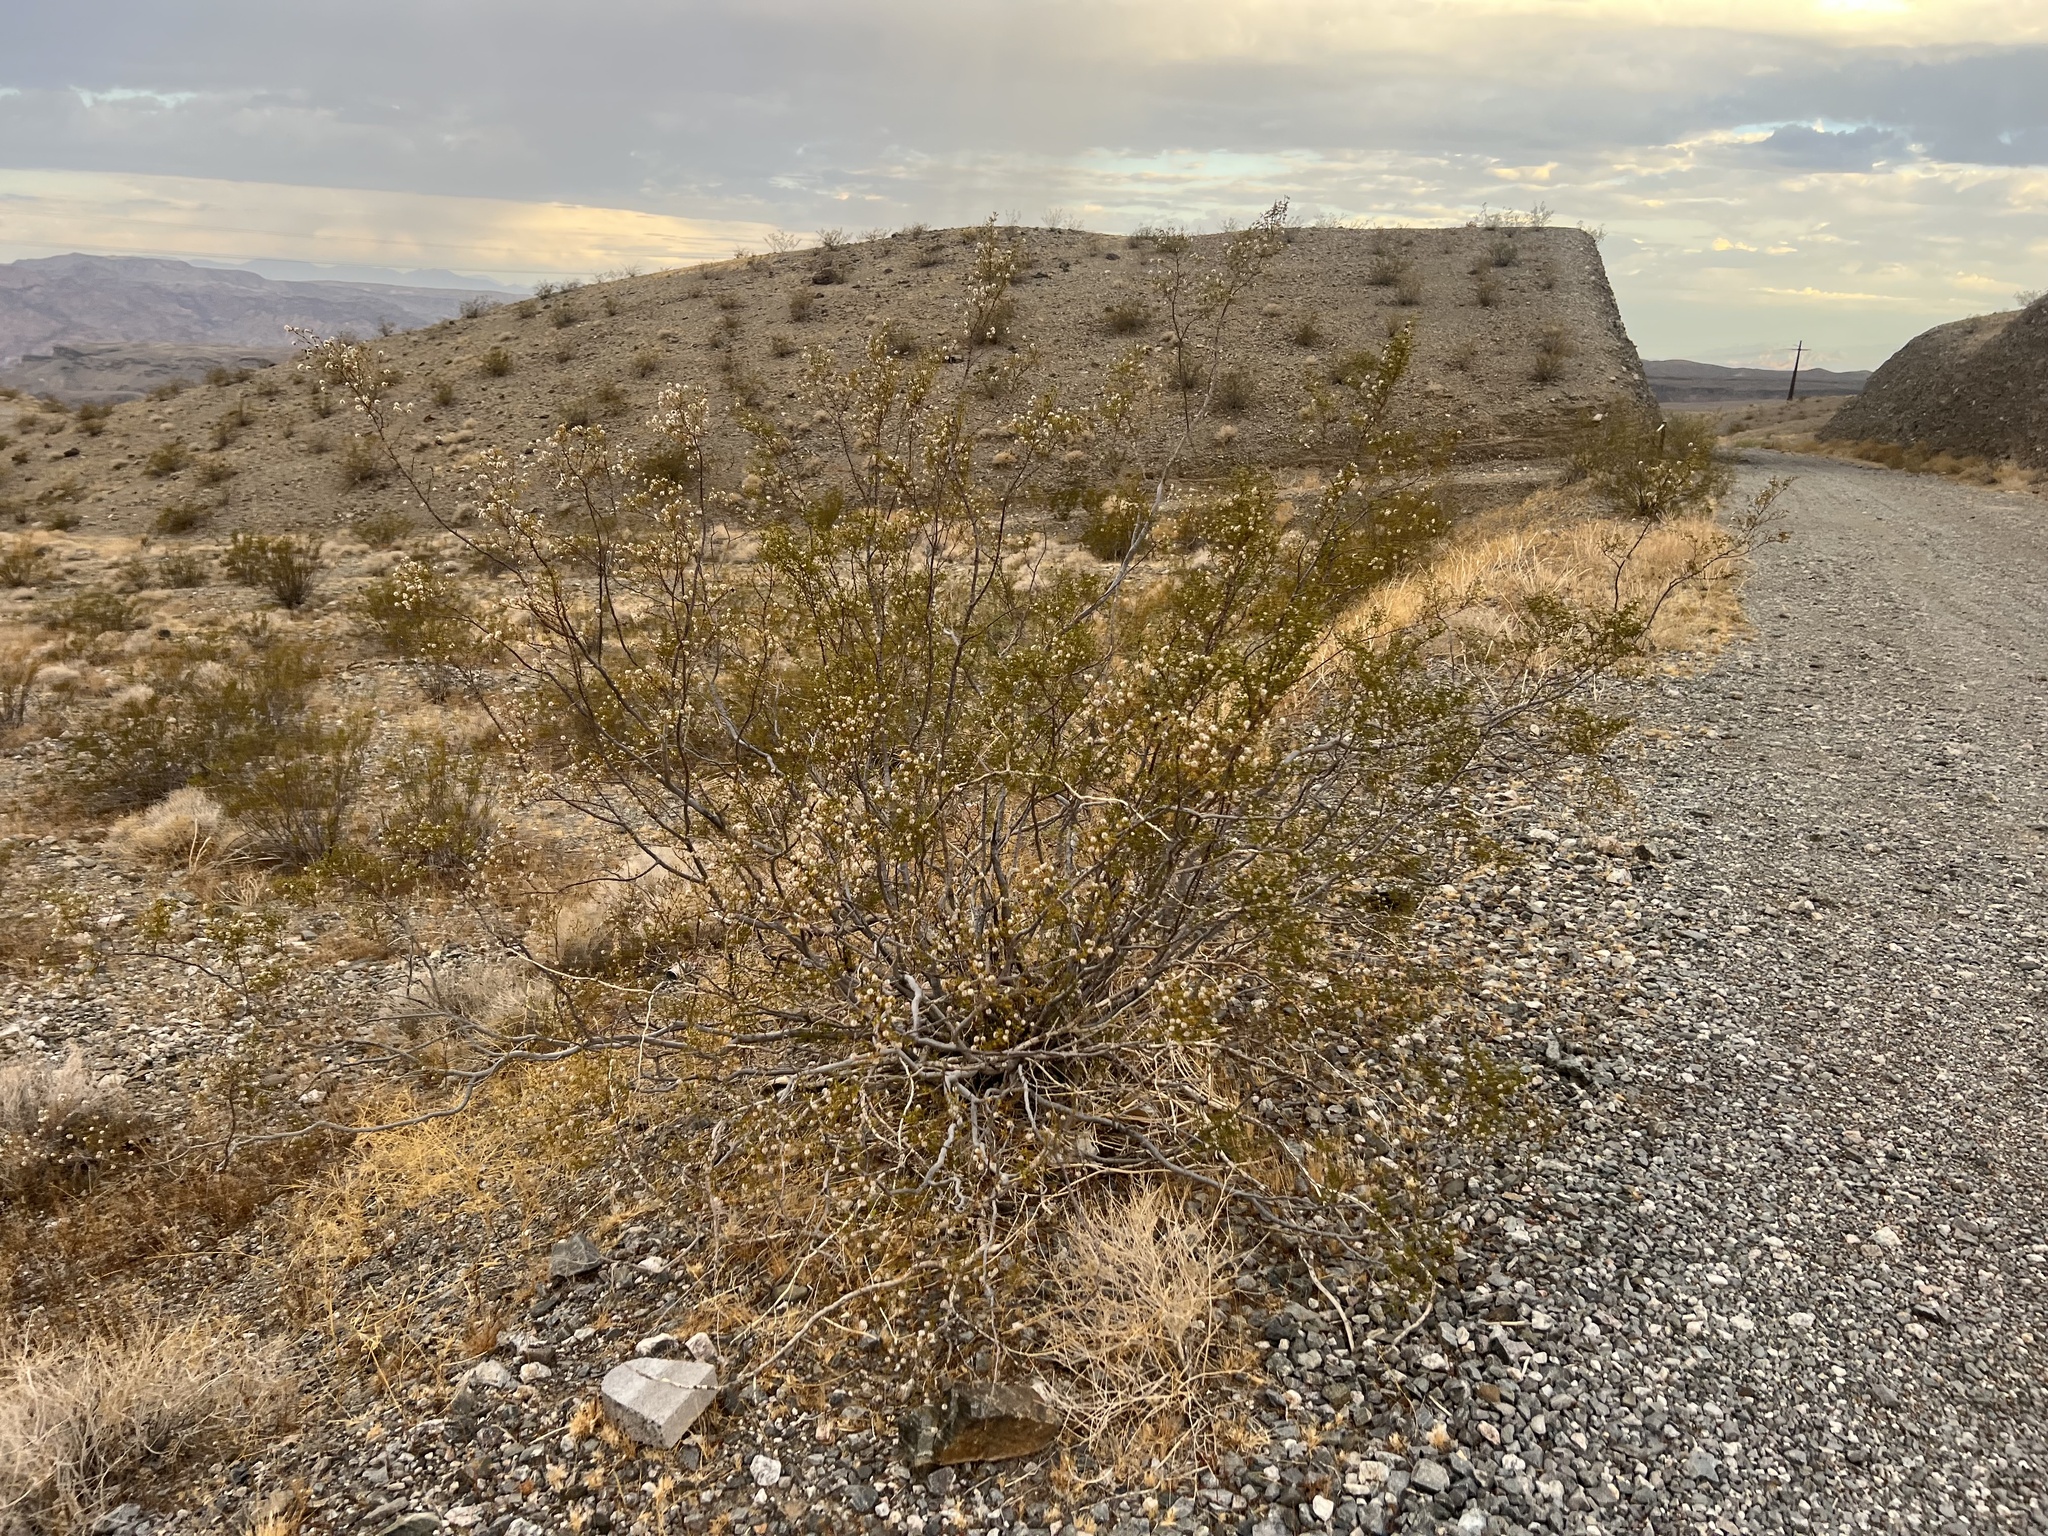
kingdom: Plantae
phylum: Tracheophyta
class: Magnoliopsida
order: Zygophyllales
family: Zygophyllaceae
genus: Larrea
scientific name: Larrea tridentata
